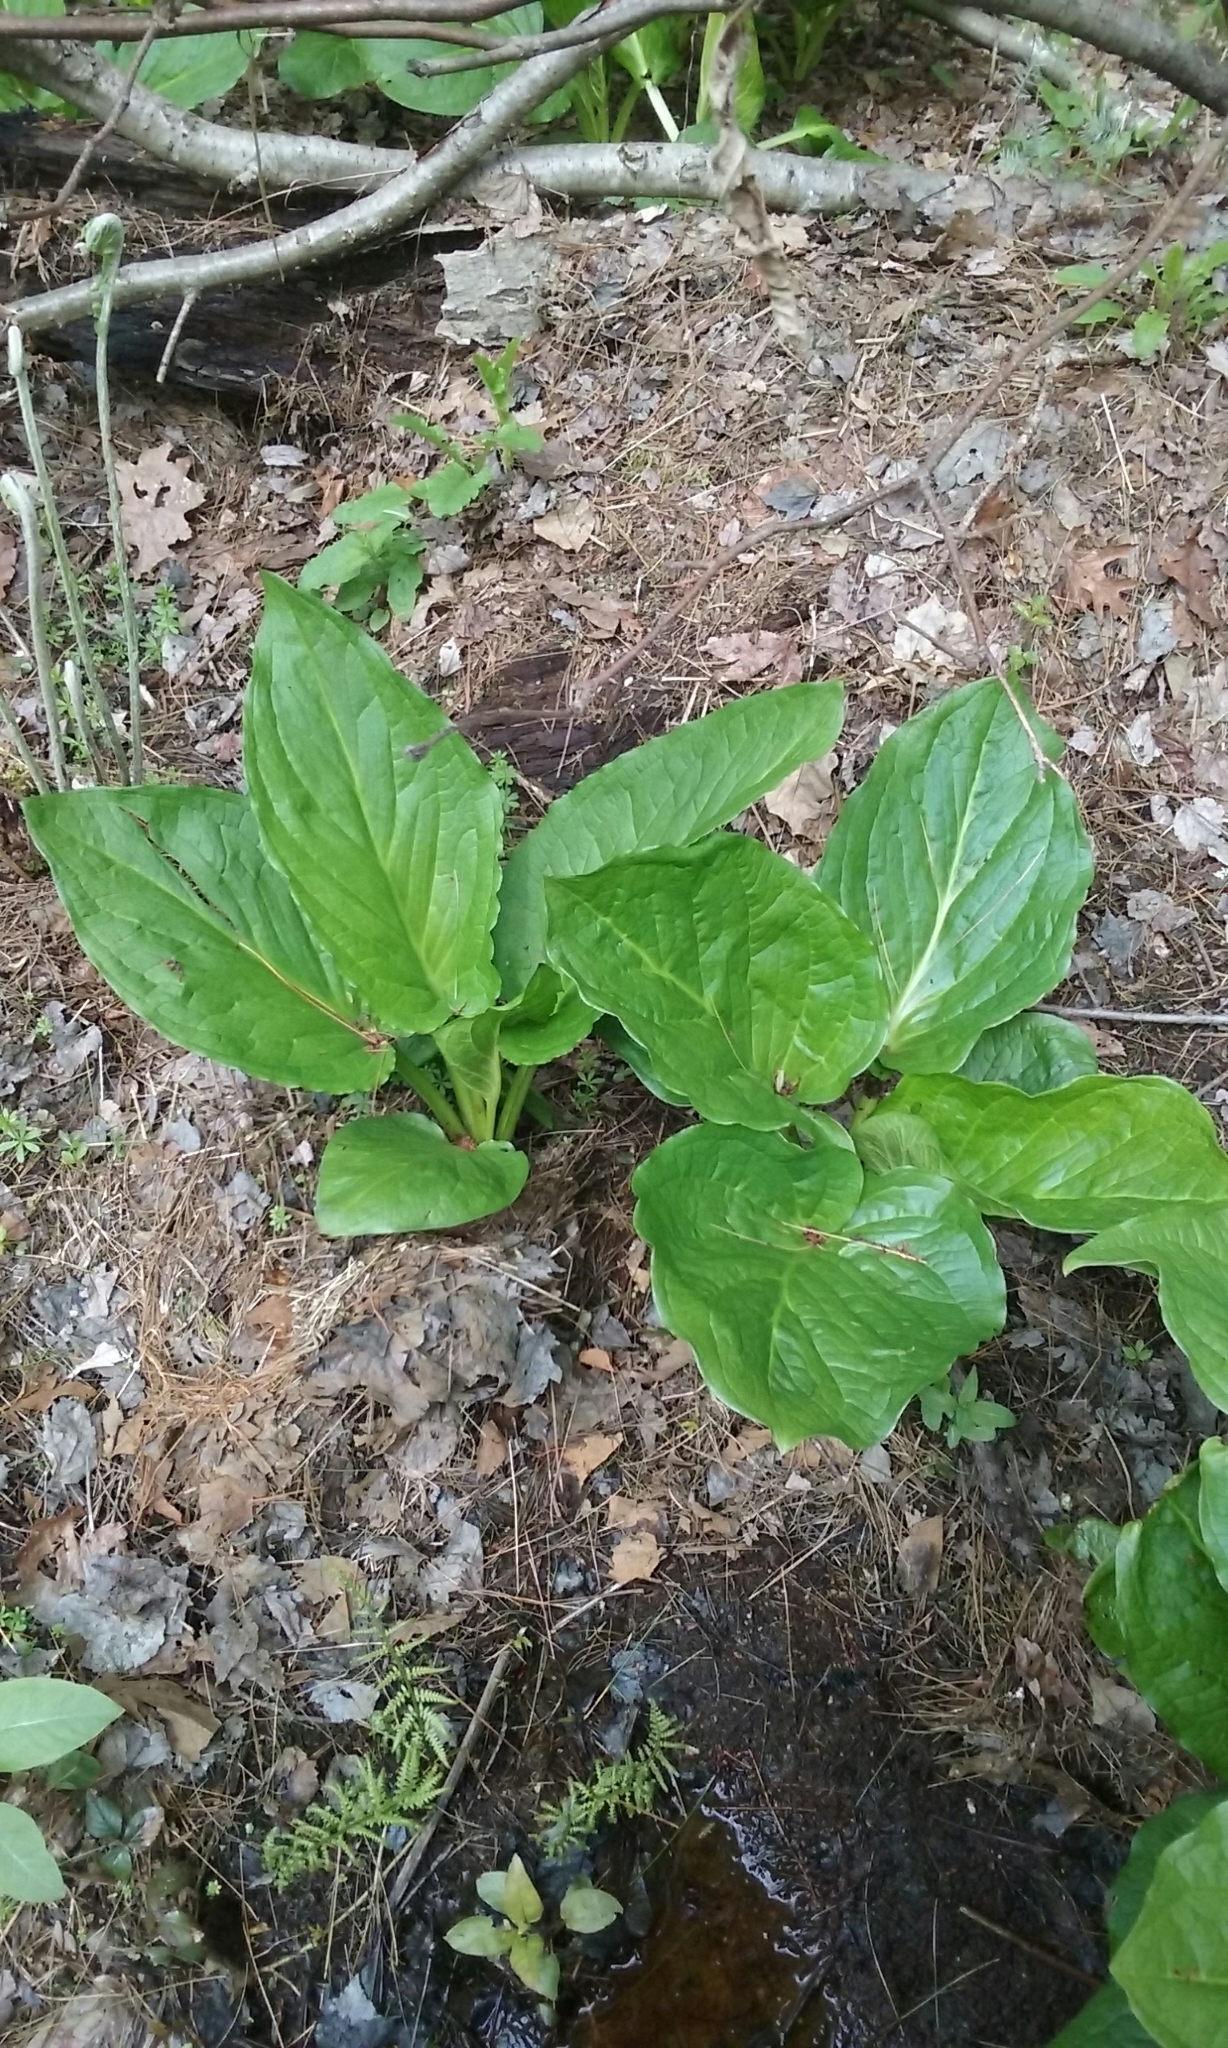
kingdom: Plantae
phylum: Tracheophyta
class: Liliopsida
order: Alismatales
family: Araceae
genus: Symplocarpus
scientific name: Symplocarpus foetidus
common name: Eastern skunk cabbage
